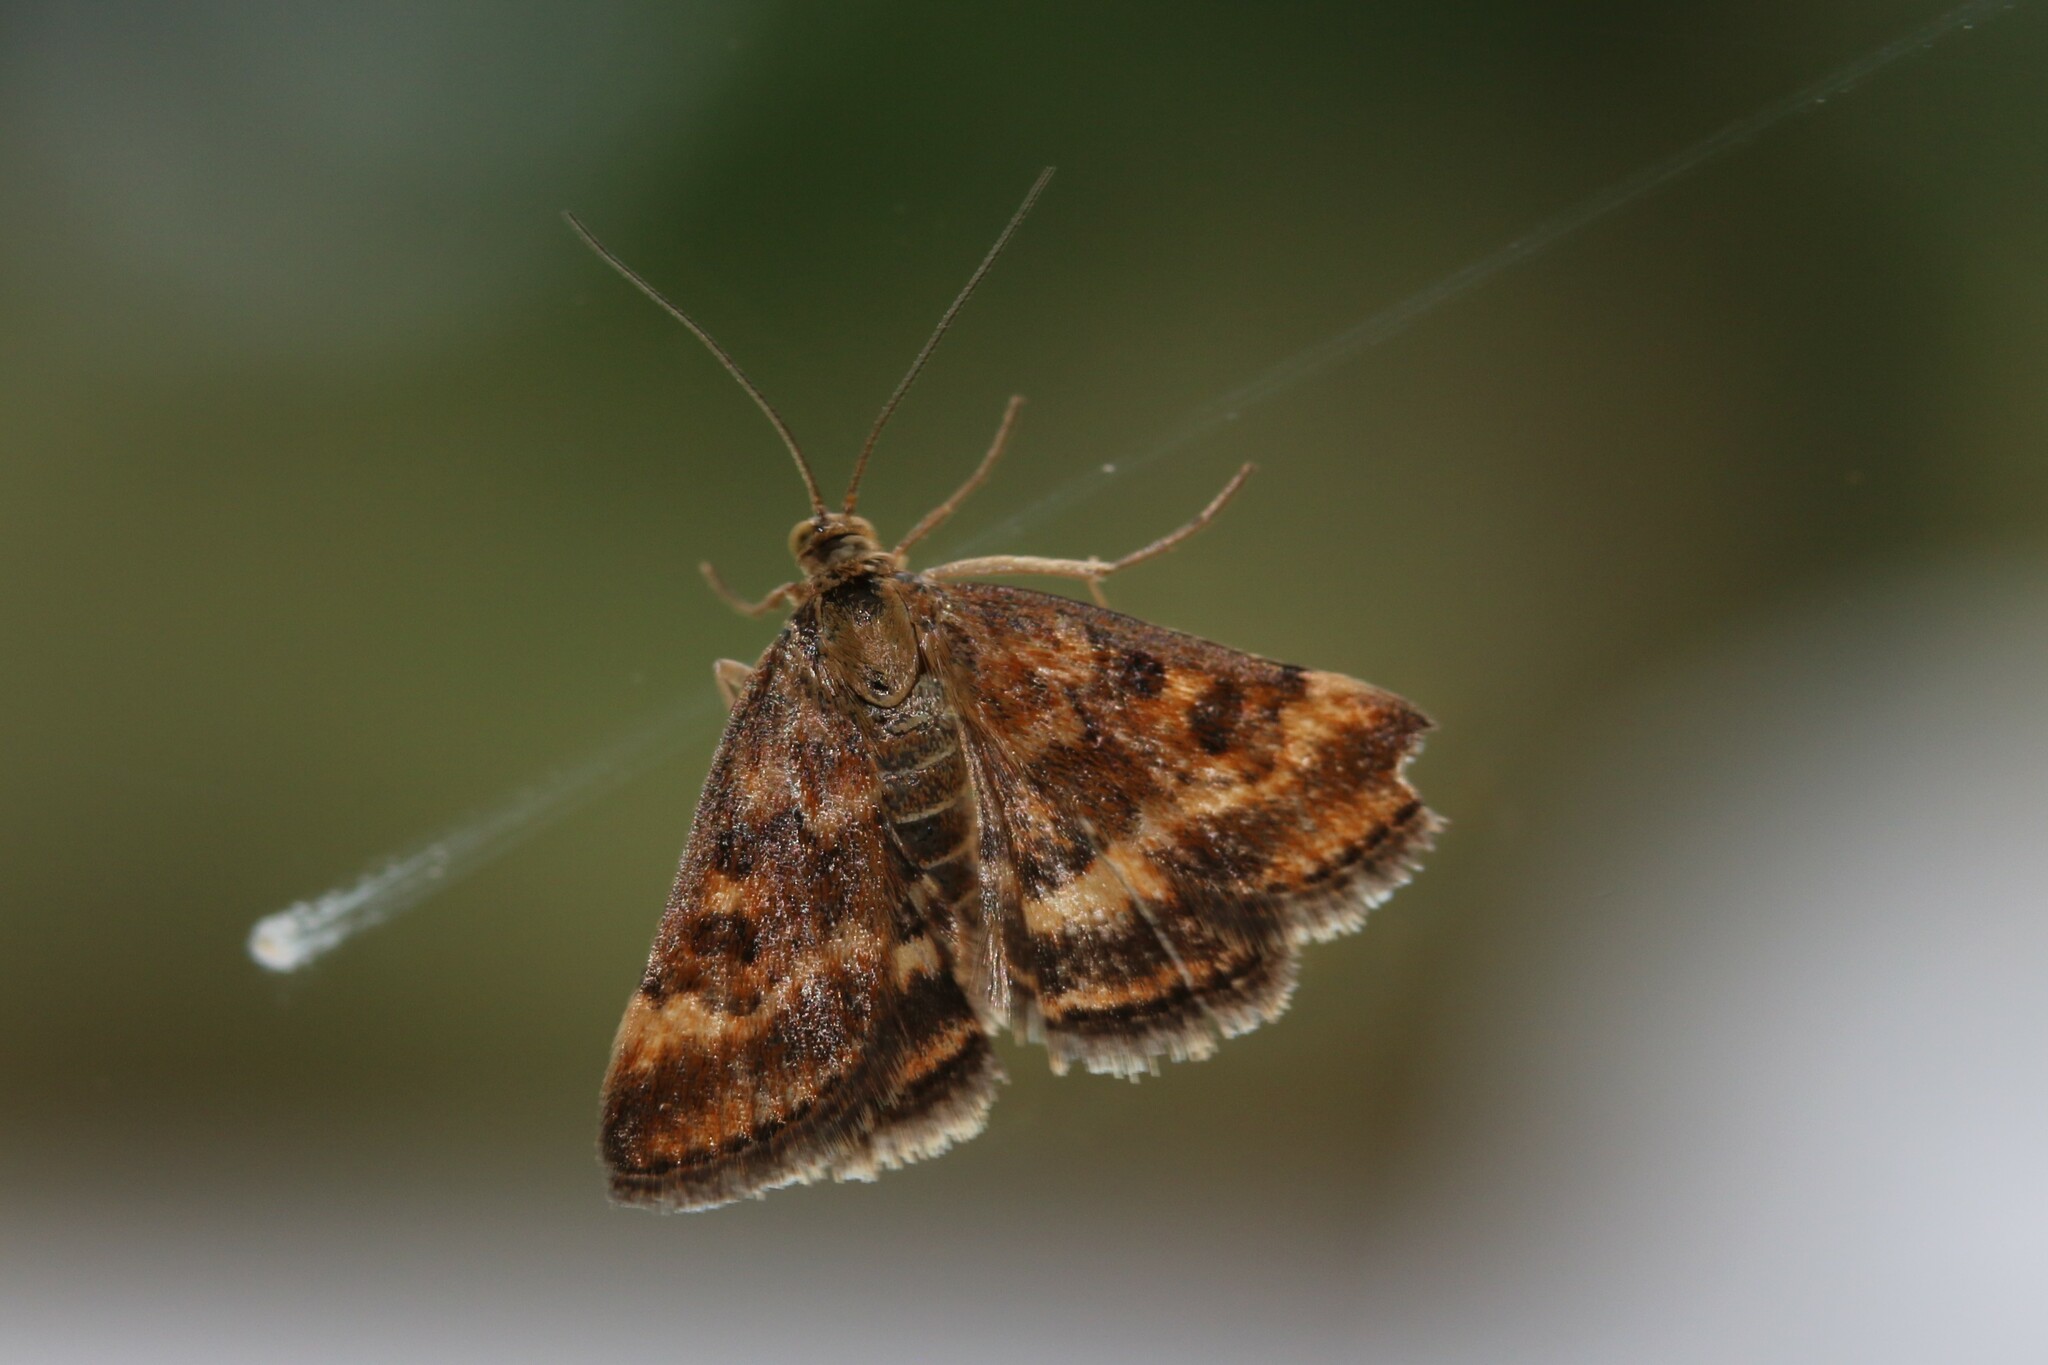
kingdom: Animalia
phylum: Arthropoda
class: Insecta
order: Lepidoptera
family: Crambidae
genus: Pyrausta
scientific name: Pyrausta despicata
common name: Straw-barred pearl
